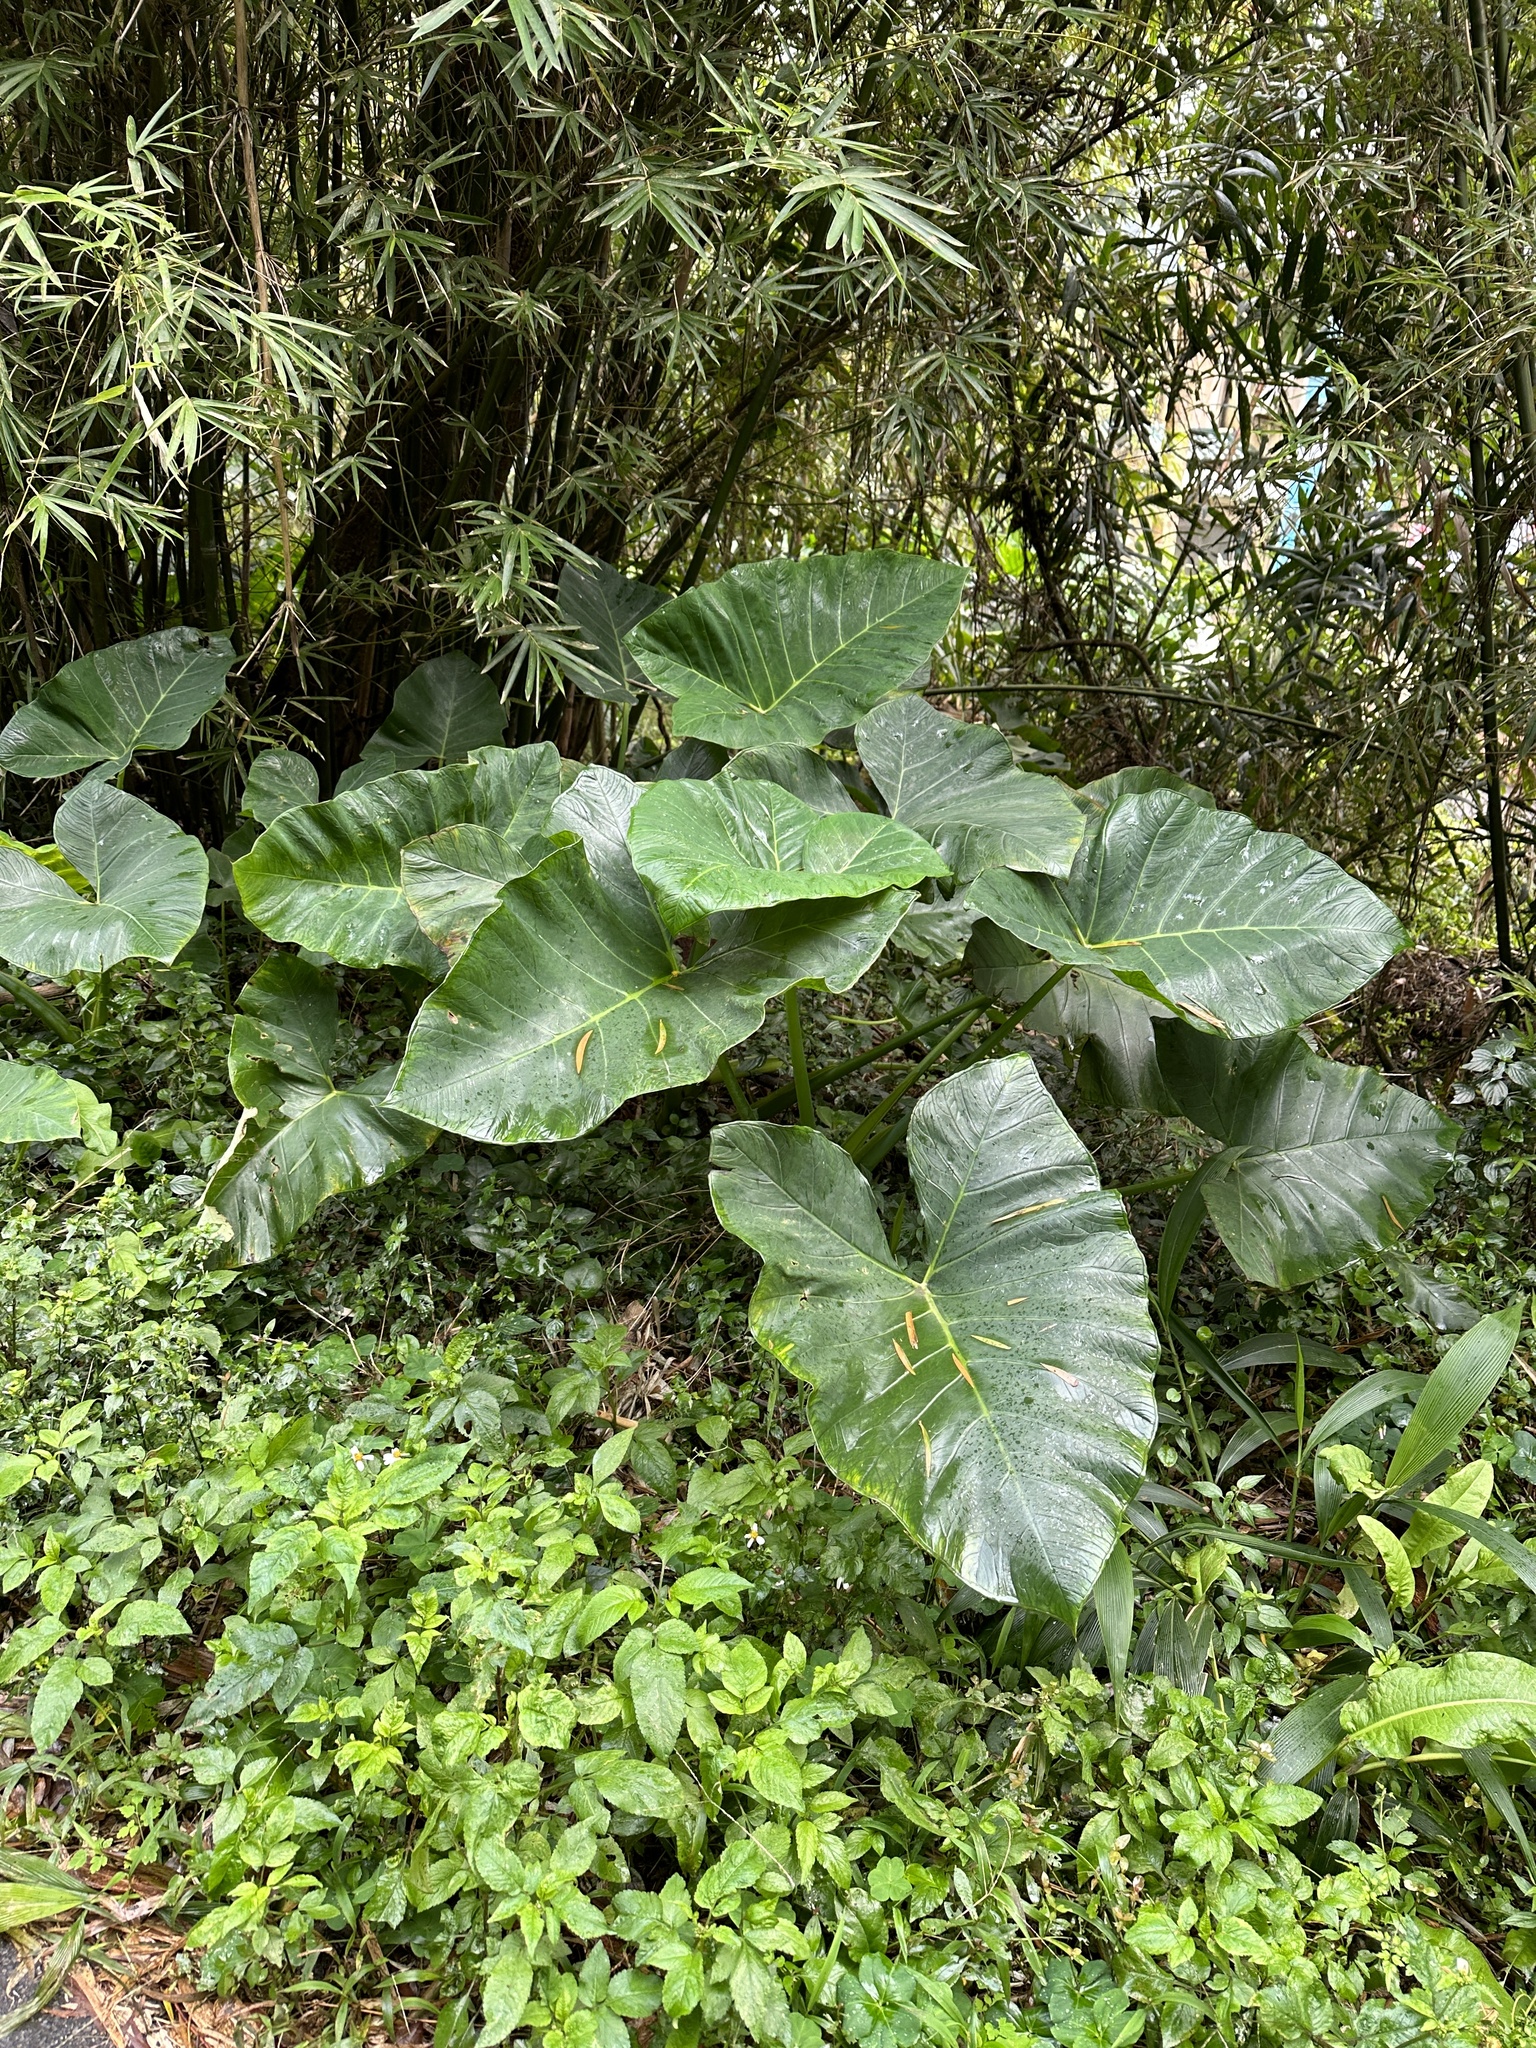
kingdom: Plantae
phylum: Tracheophyta
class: Liliopsida
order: Alismatales
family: Araceae
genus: Xanthosoma
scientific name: Xanthosoma sagittifolium
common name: Arrowleaf elephant's ear
